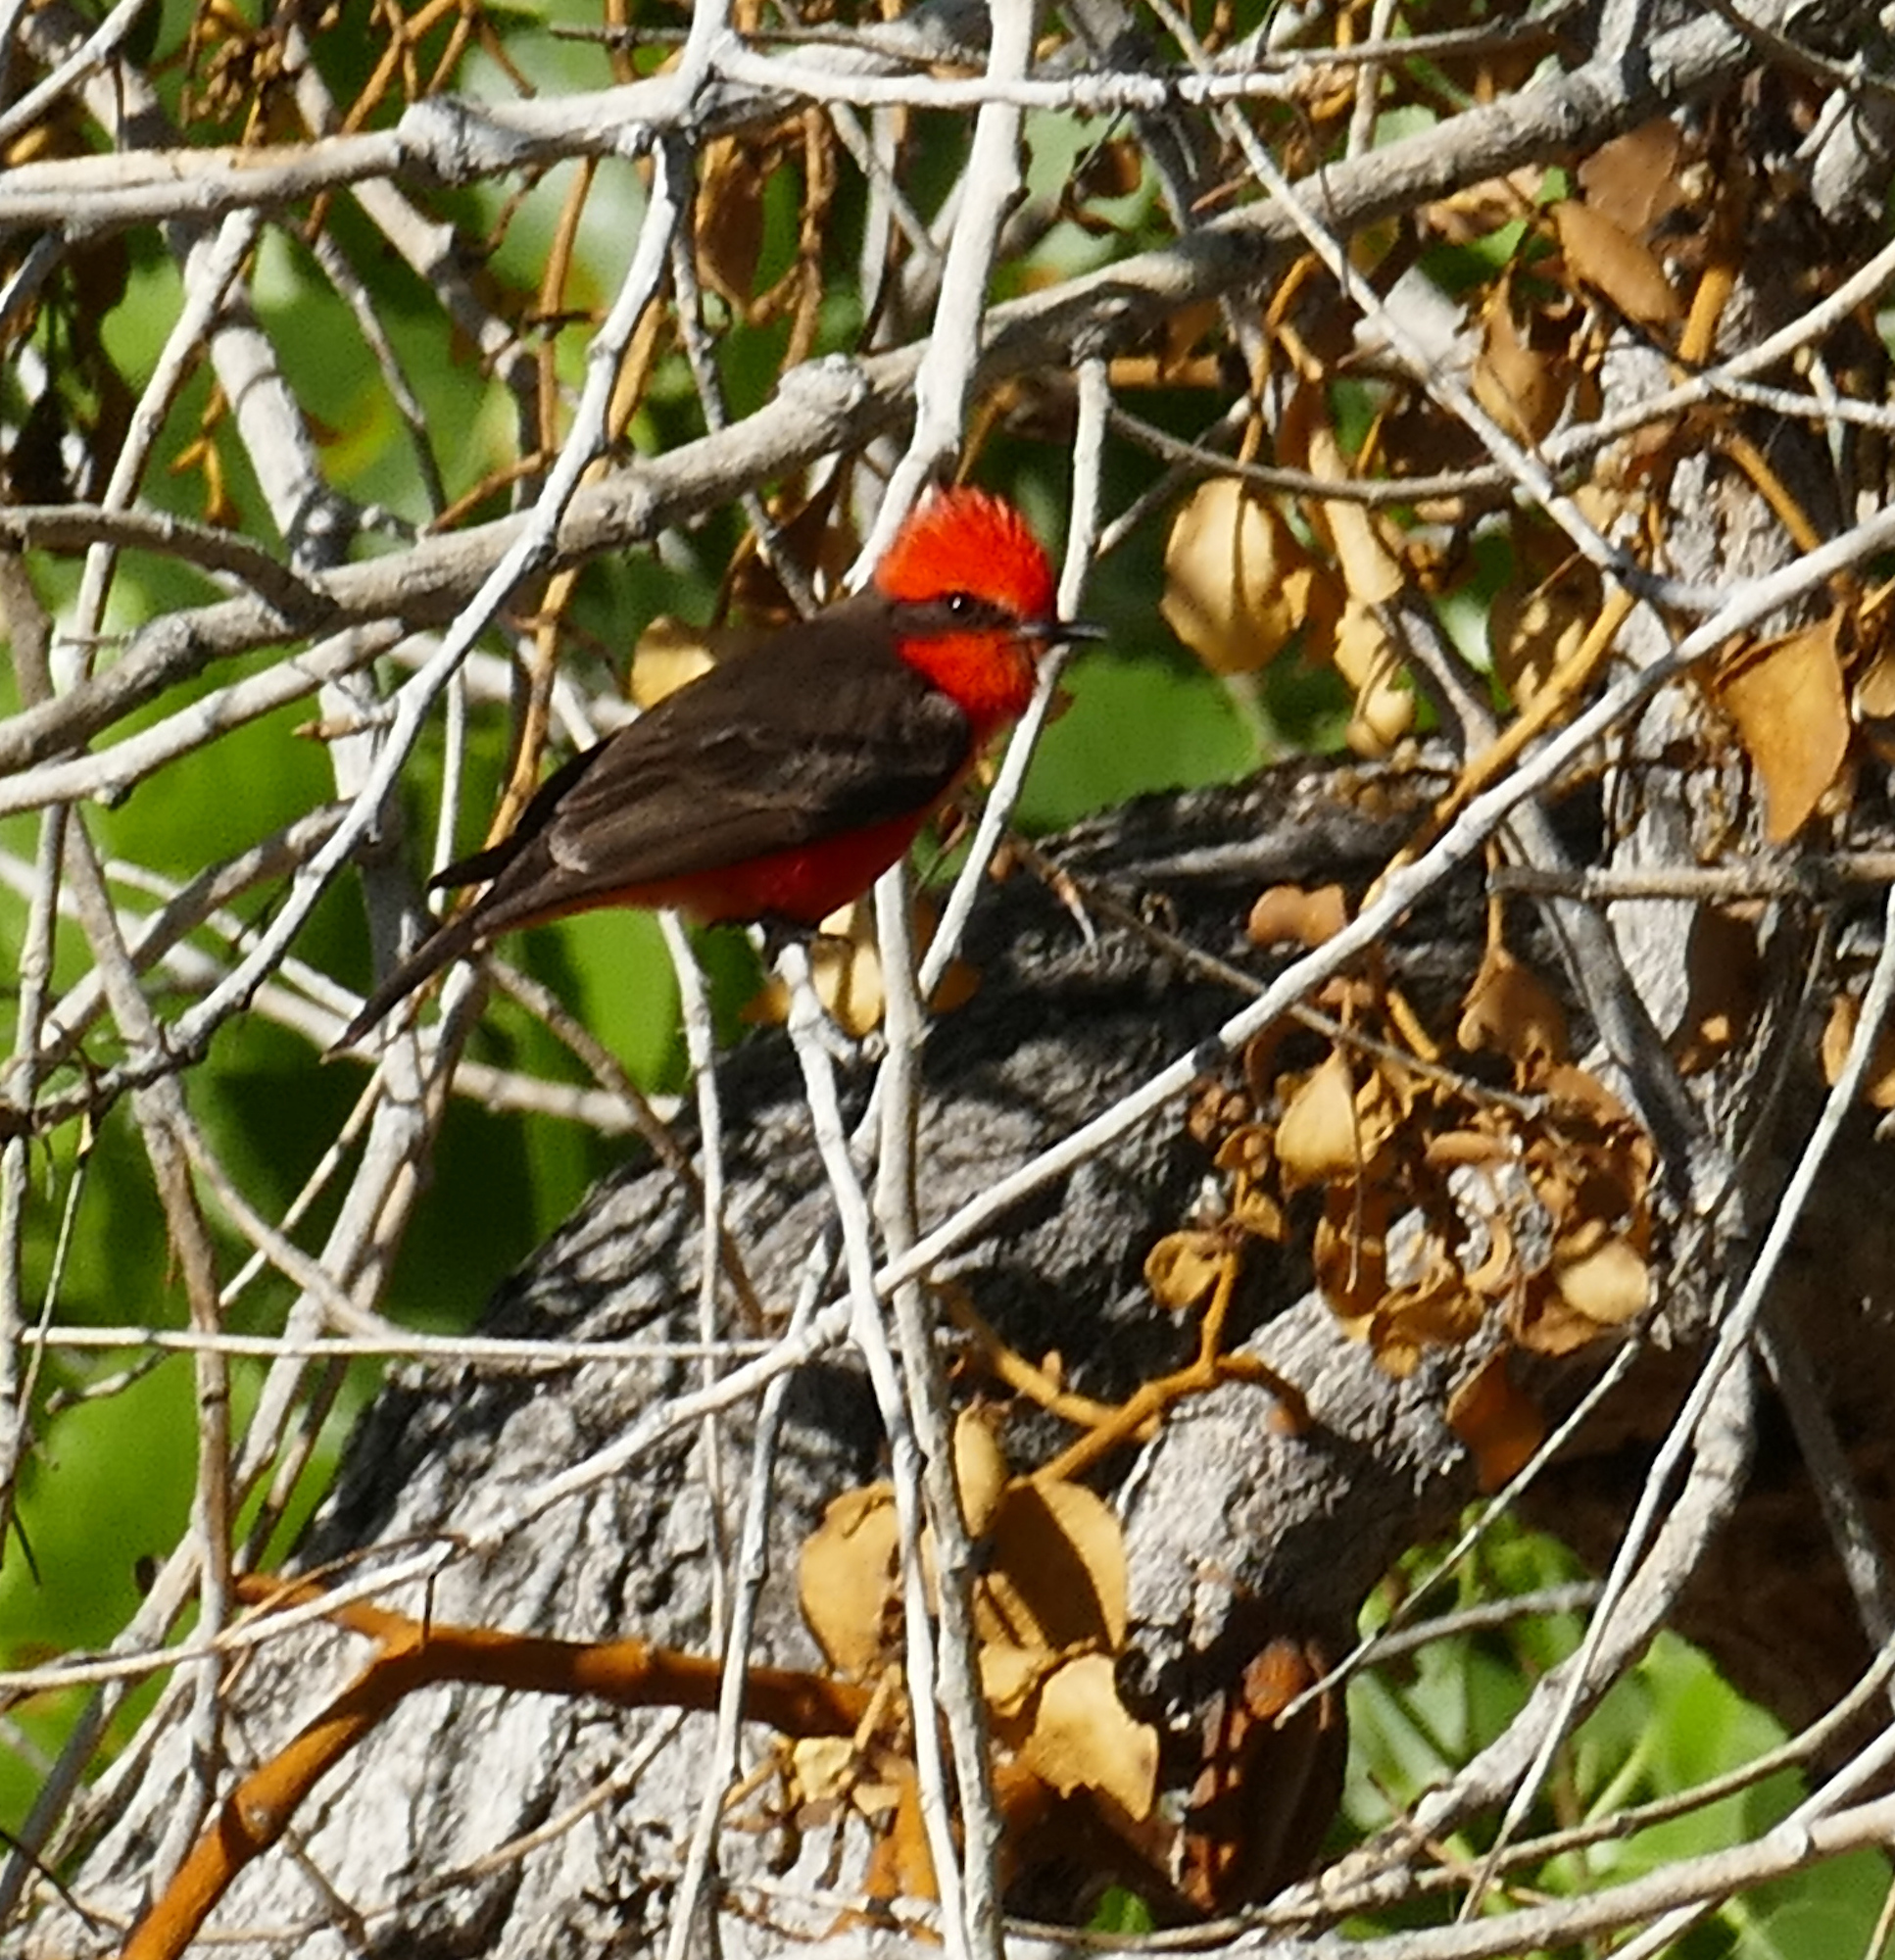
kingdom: Animalia
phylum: Chordata
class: Aves
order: Passeriformes
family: Tyrannidae
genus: Pyrocephalus
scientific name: Pyrocephalus rubinus
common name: Vermilion flycatcher
